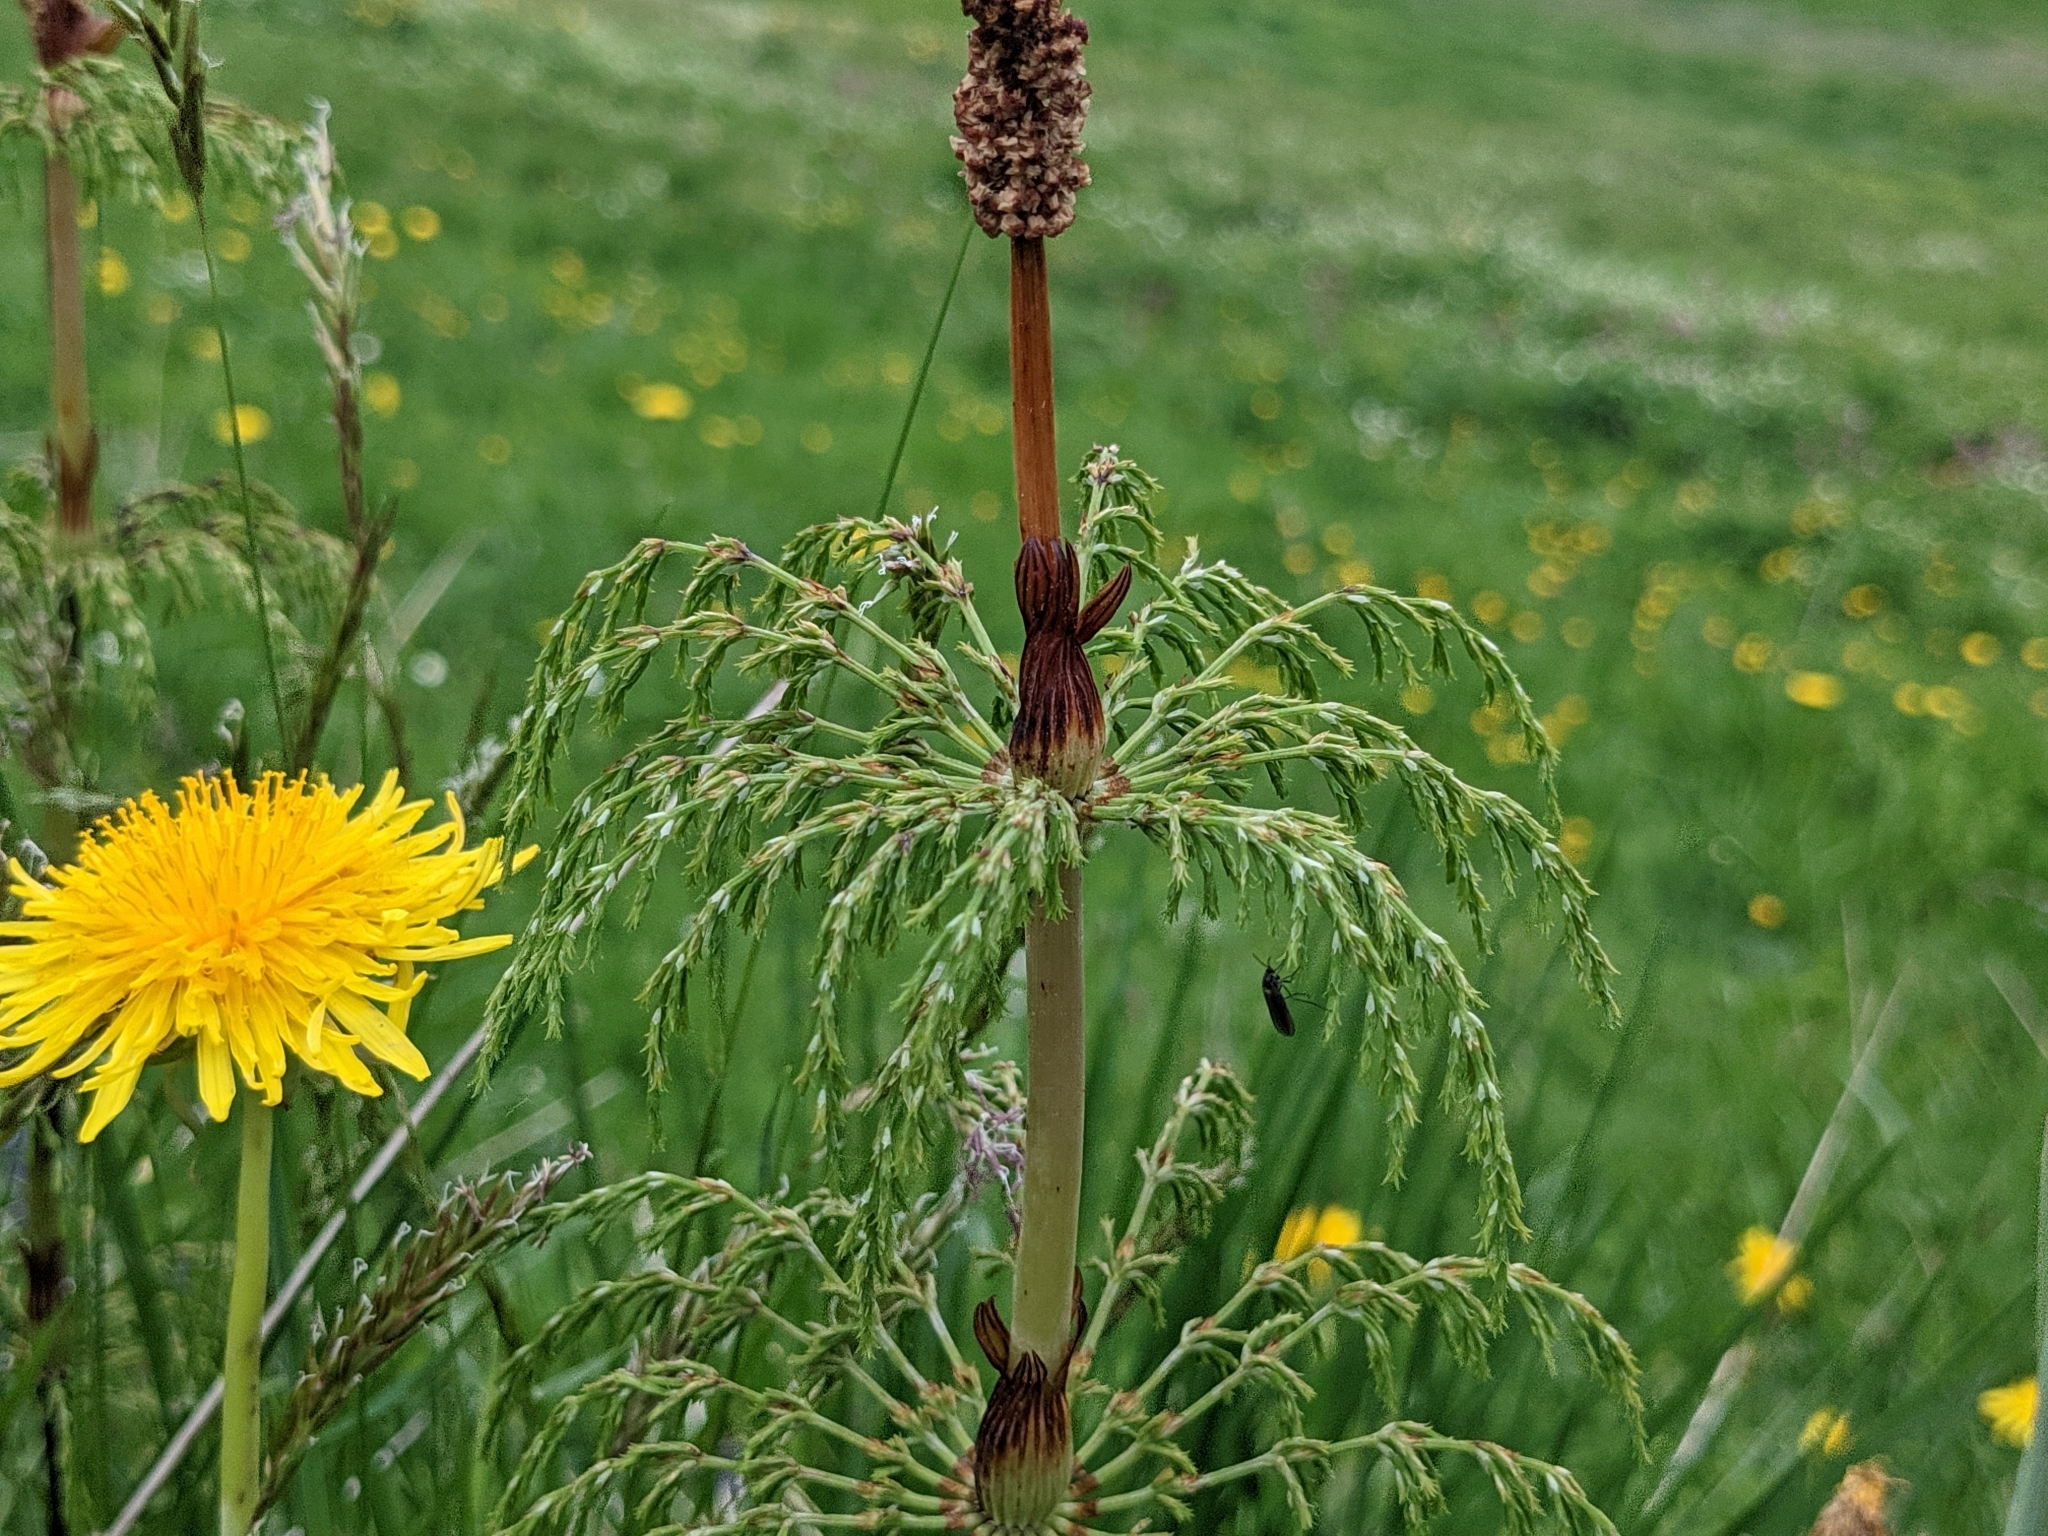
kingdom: Plantae
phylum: Tracheophyta
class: Polypodiopsida
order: Equisetales
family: Equisetaceae
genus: Equisetum
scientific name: Equisetum sylvaticum
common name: Wood horsetail
